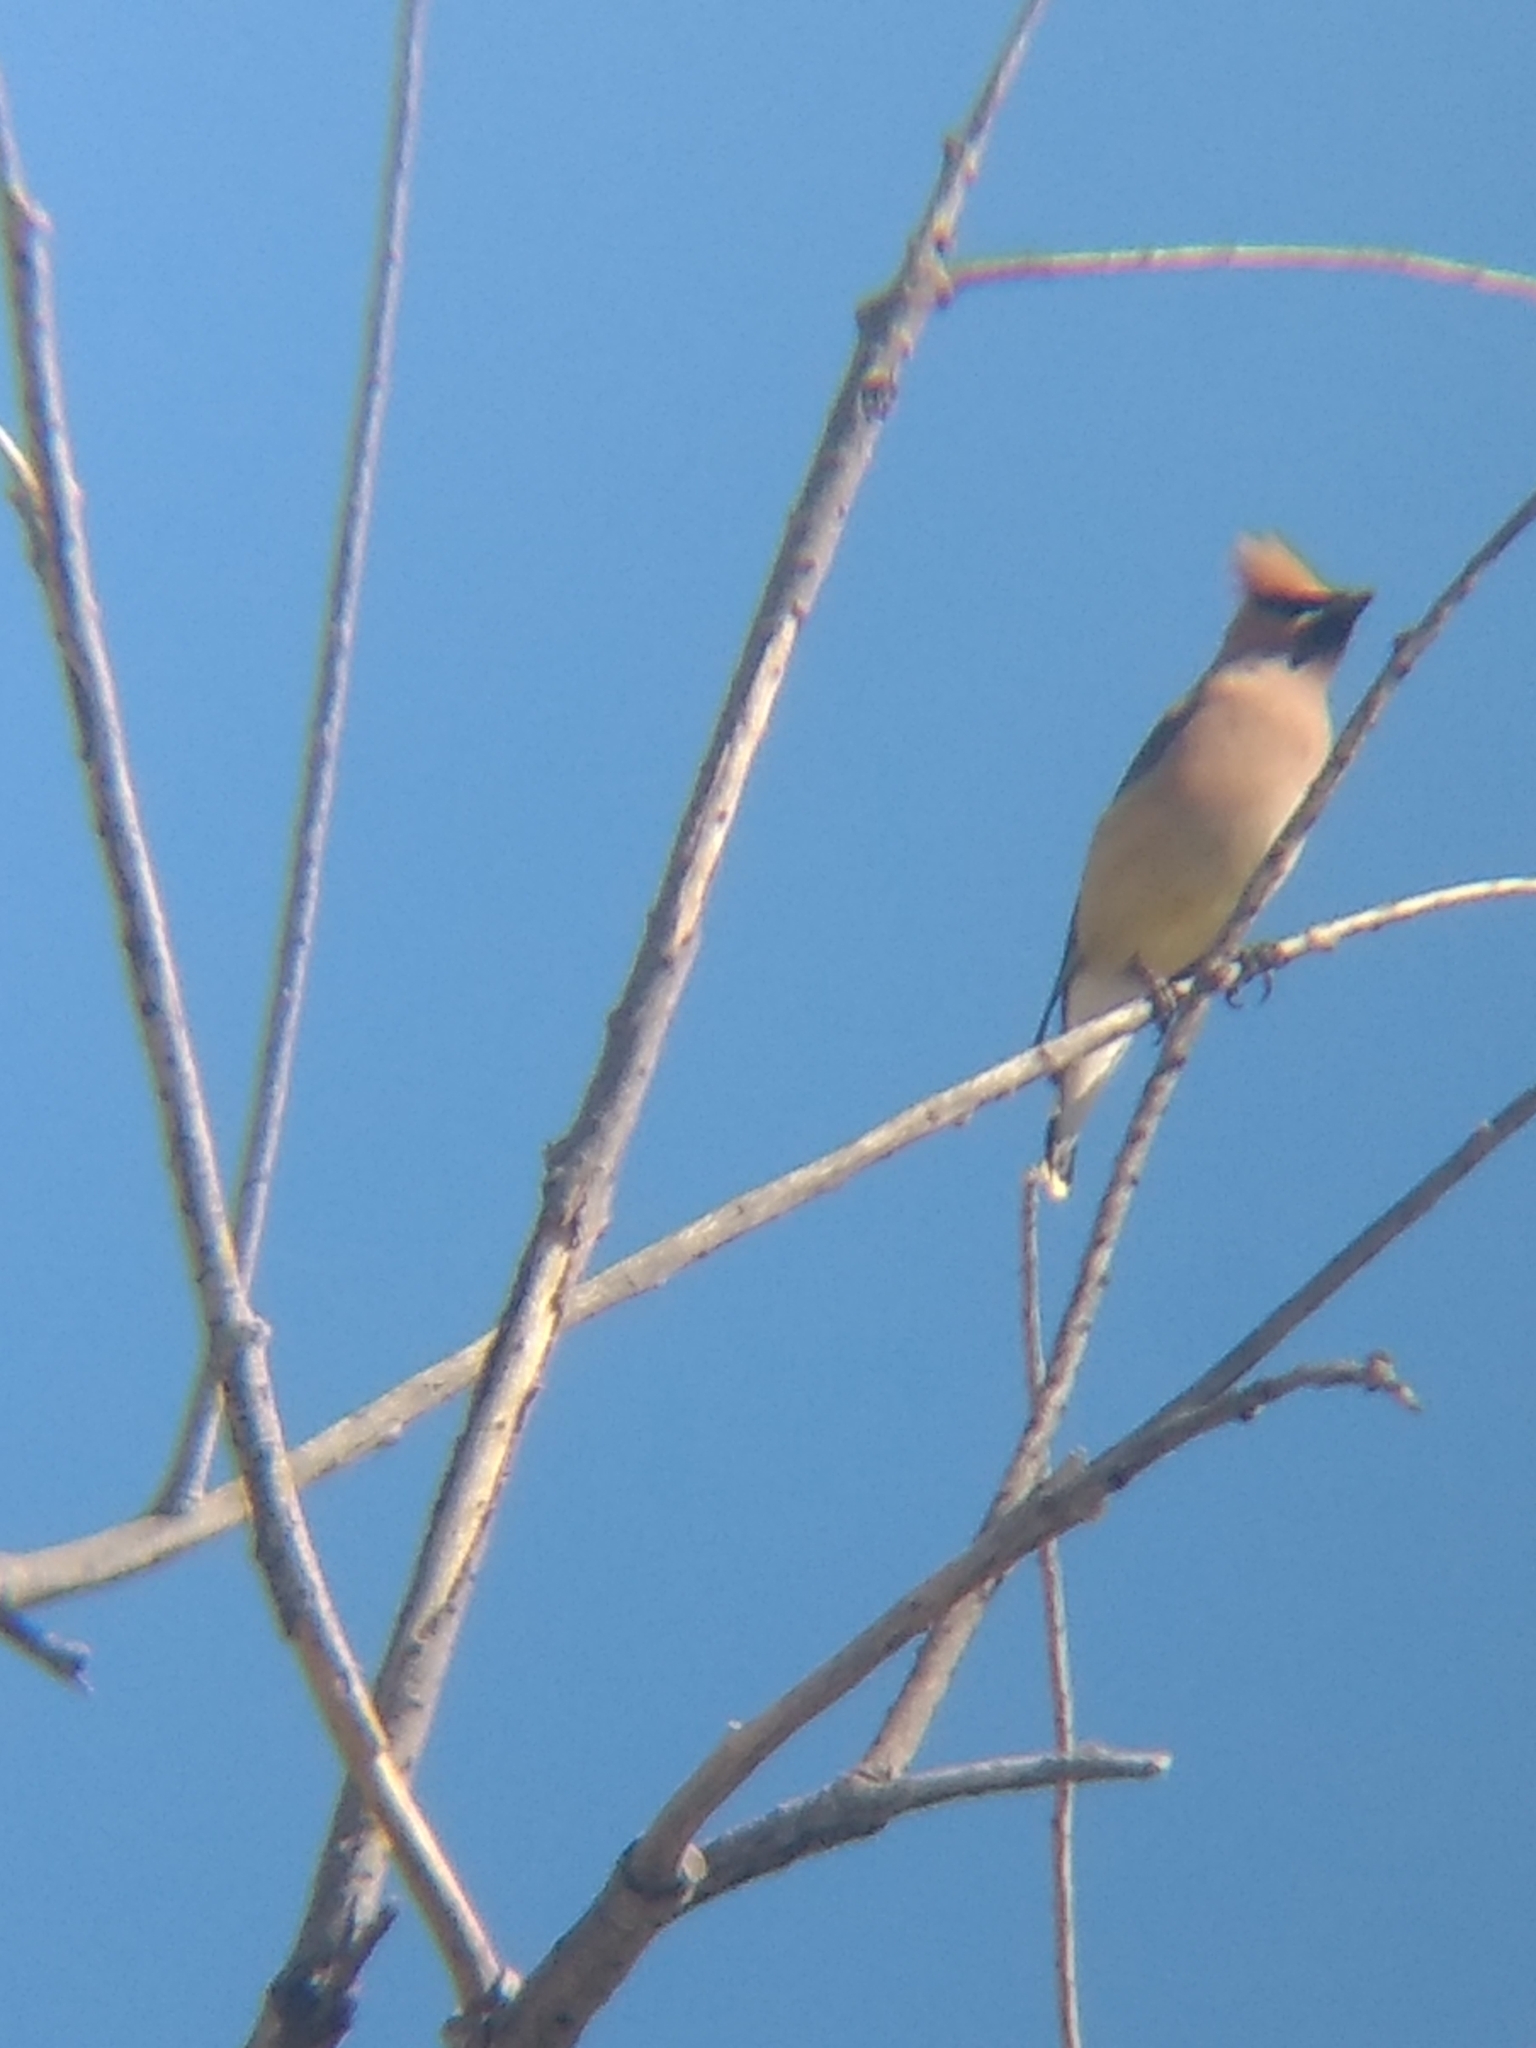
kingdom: Animalia
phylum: Chordata
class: Aves
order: Passeriformes
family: Bombycillidae
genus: Bombycilla
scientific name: Bombycilla cedrorum
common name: Cedar waxwing
